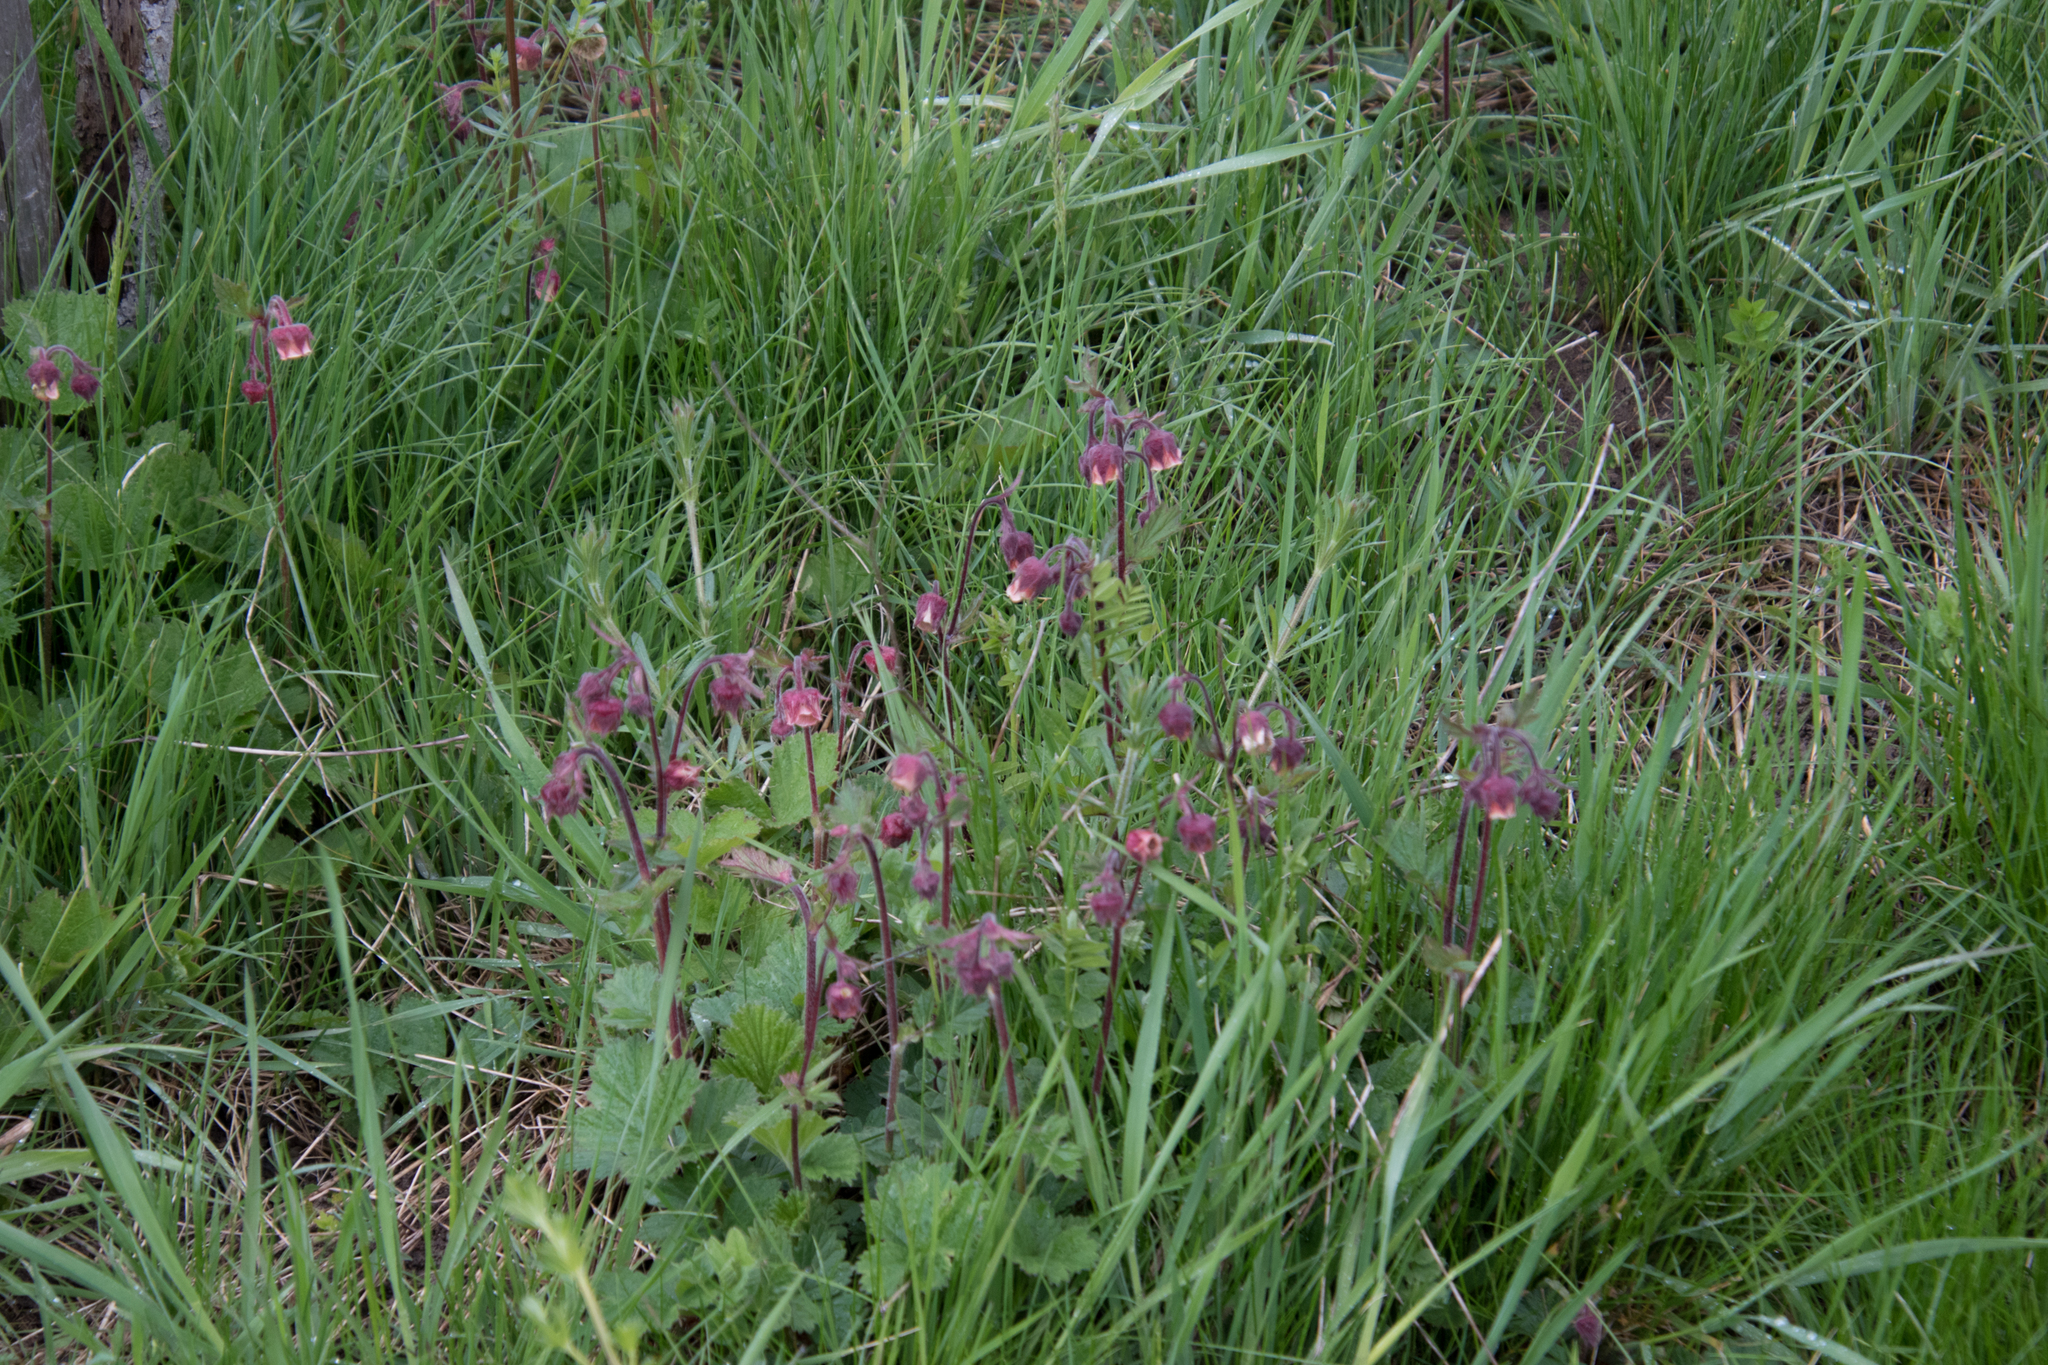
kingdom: Plantae
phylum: Tracheophyta
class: Magnoliopsida
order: Rosales
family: Rosaceae
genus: Geum
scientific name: Geum rivale
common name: Water avens
